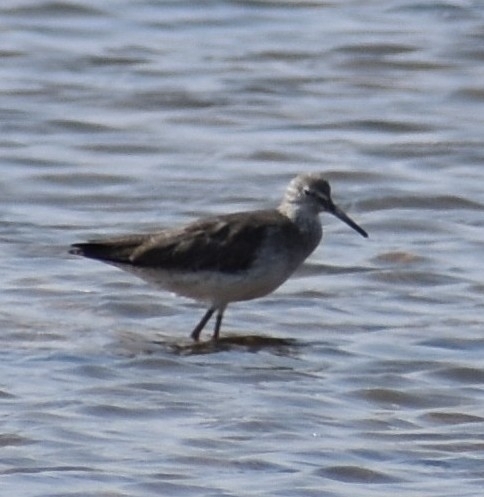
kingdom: Animalia
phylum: Chordata
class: Aves
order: Charadriiformes
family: Scolopacidae
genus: Tringa
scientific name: Tringa nebularia
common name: Common greenshank
